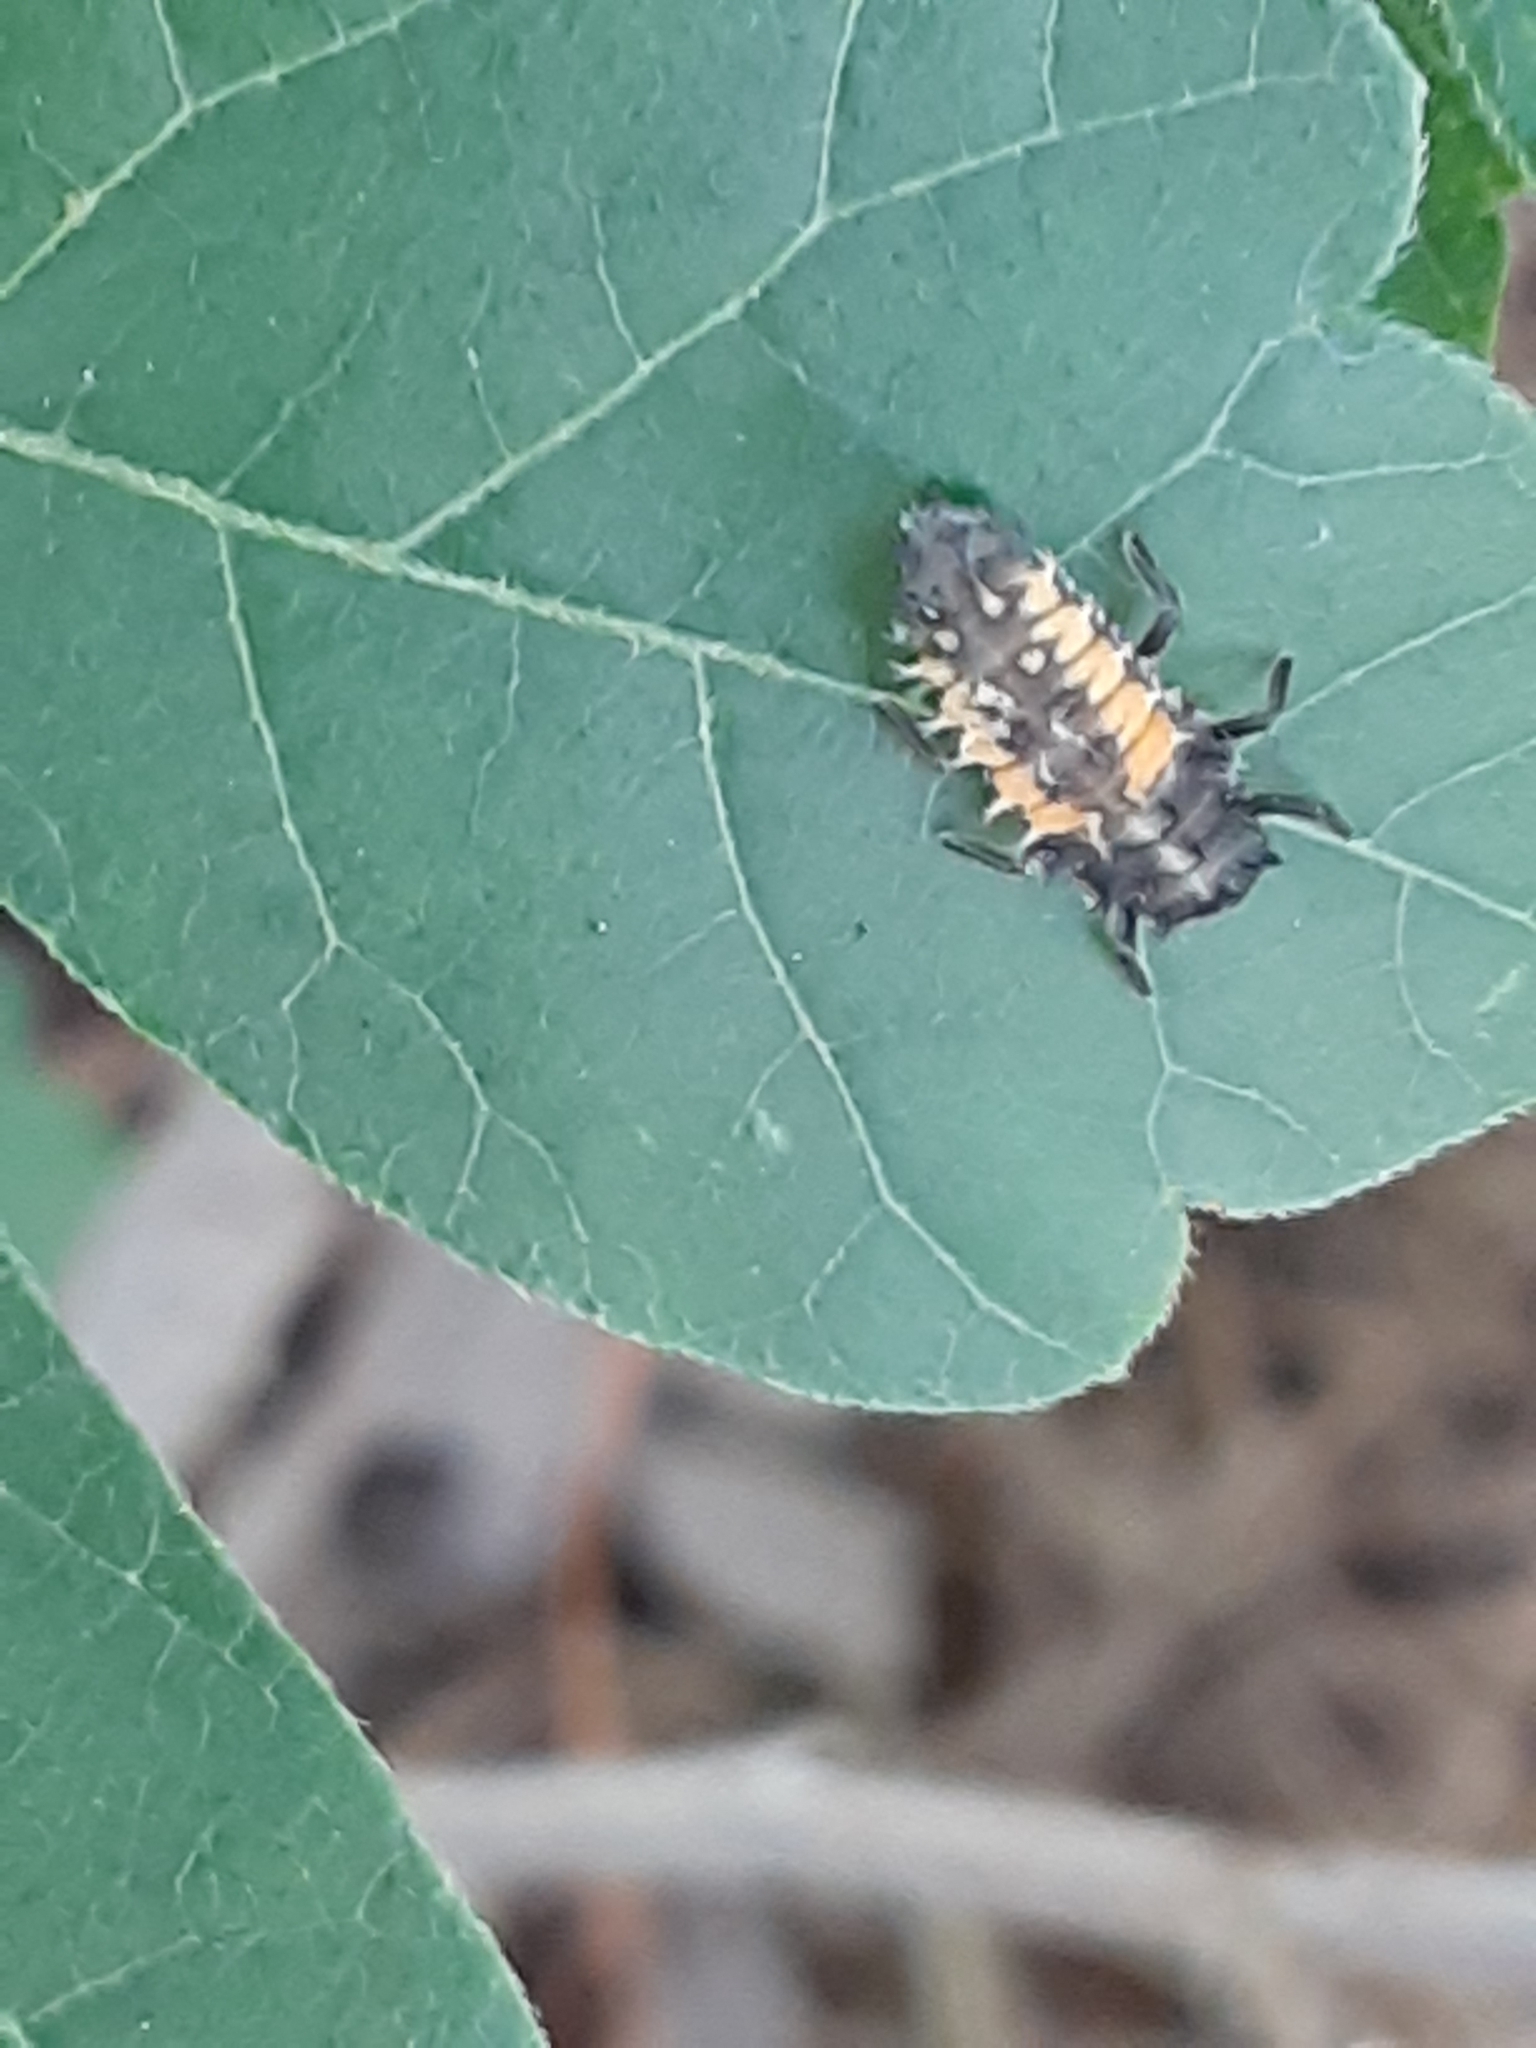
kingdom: Animalia
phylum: Arthropoda
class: Insecta
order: Coleoptera
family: Coccinellidae
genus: Harmonia
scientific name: Harmonia axyridis
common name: Harlequin ladybird
